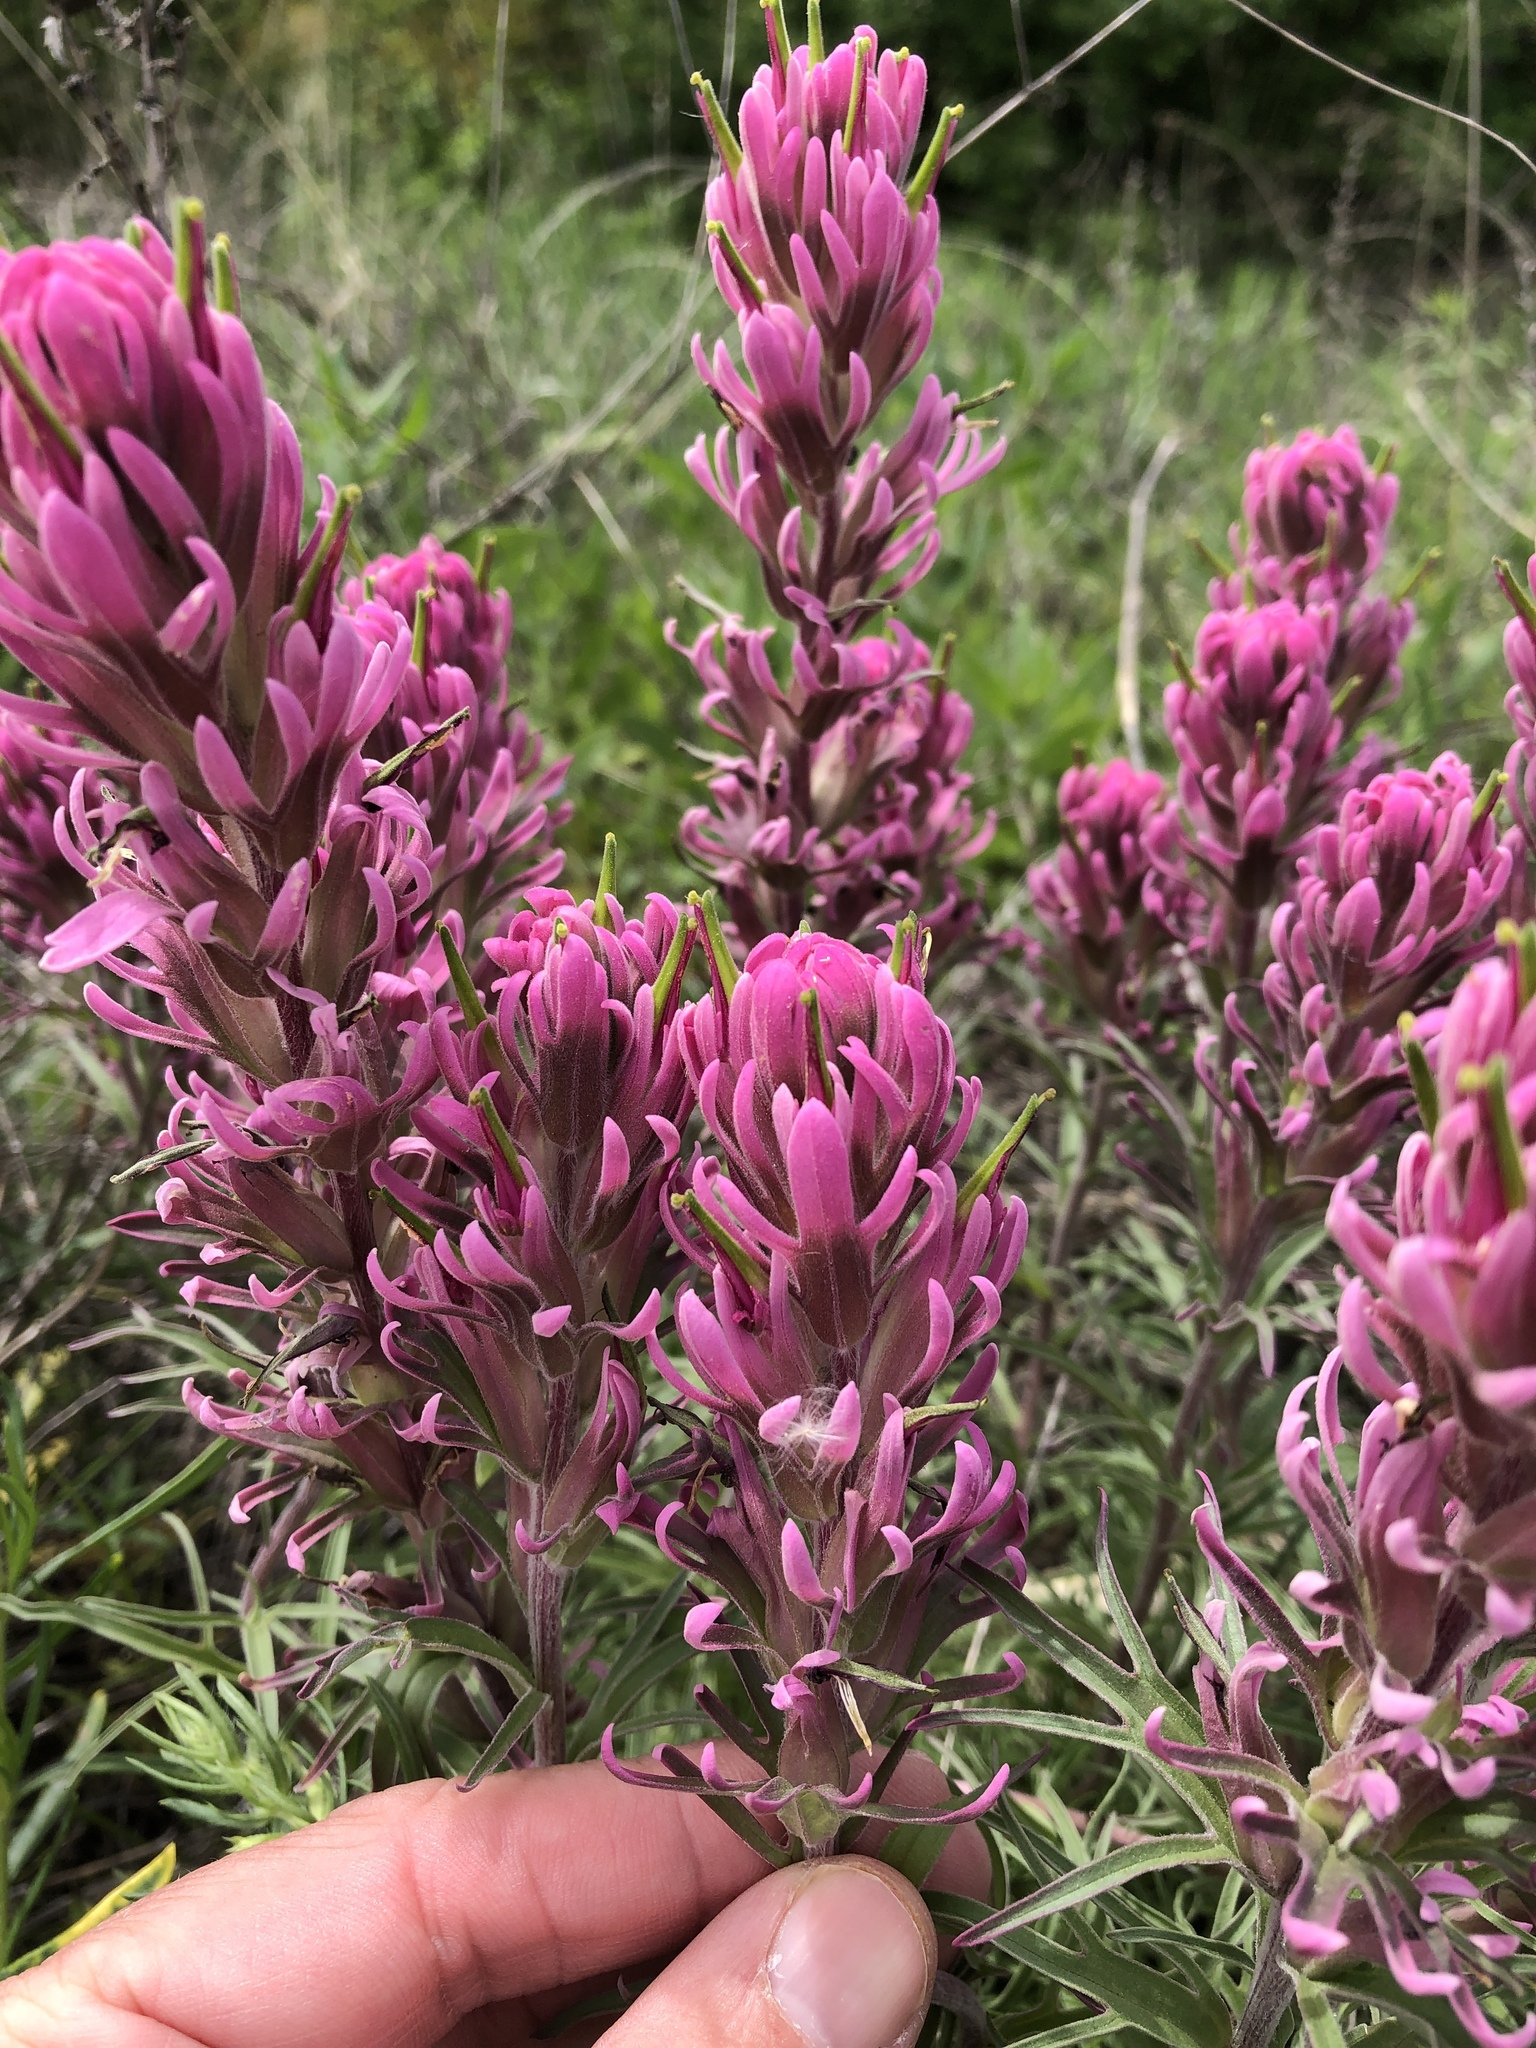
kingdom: Plantae
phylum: Tracheophyta
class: Magnoliopsida
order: Lamiales
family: Orobanchaceae
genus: Castilleja
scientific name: Castilleja purpurea
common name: Plains paintbrush
